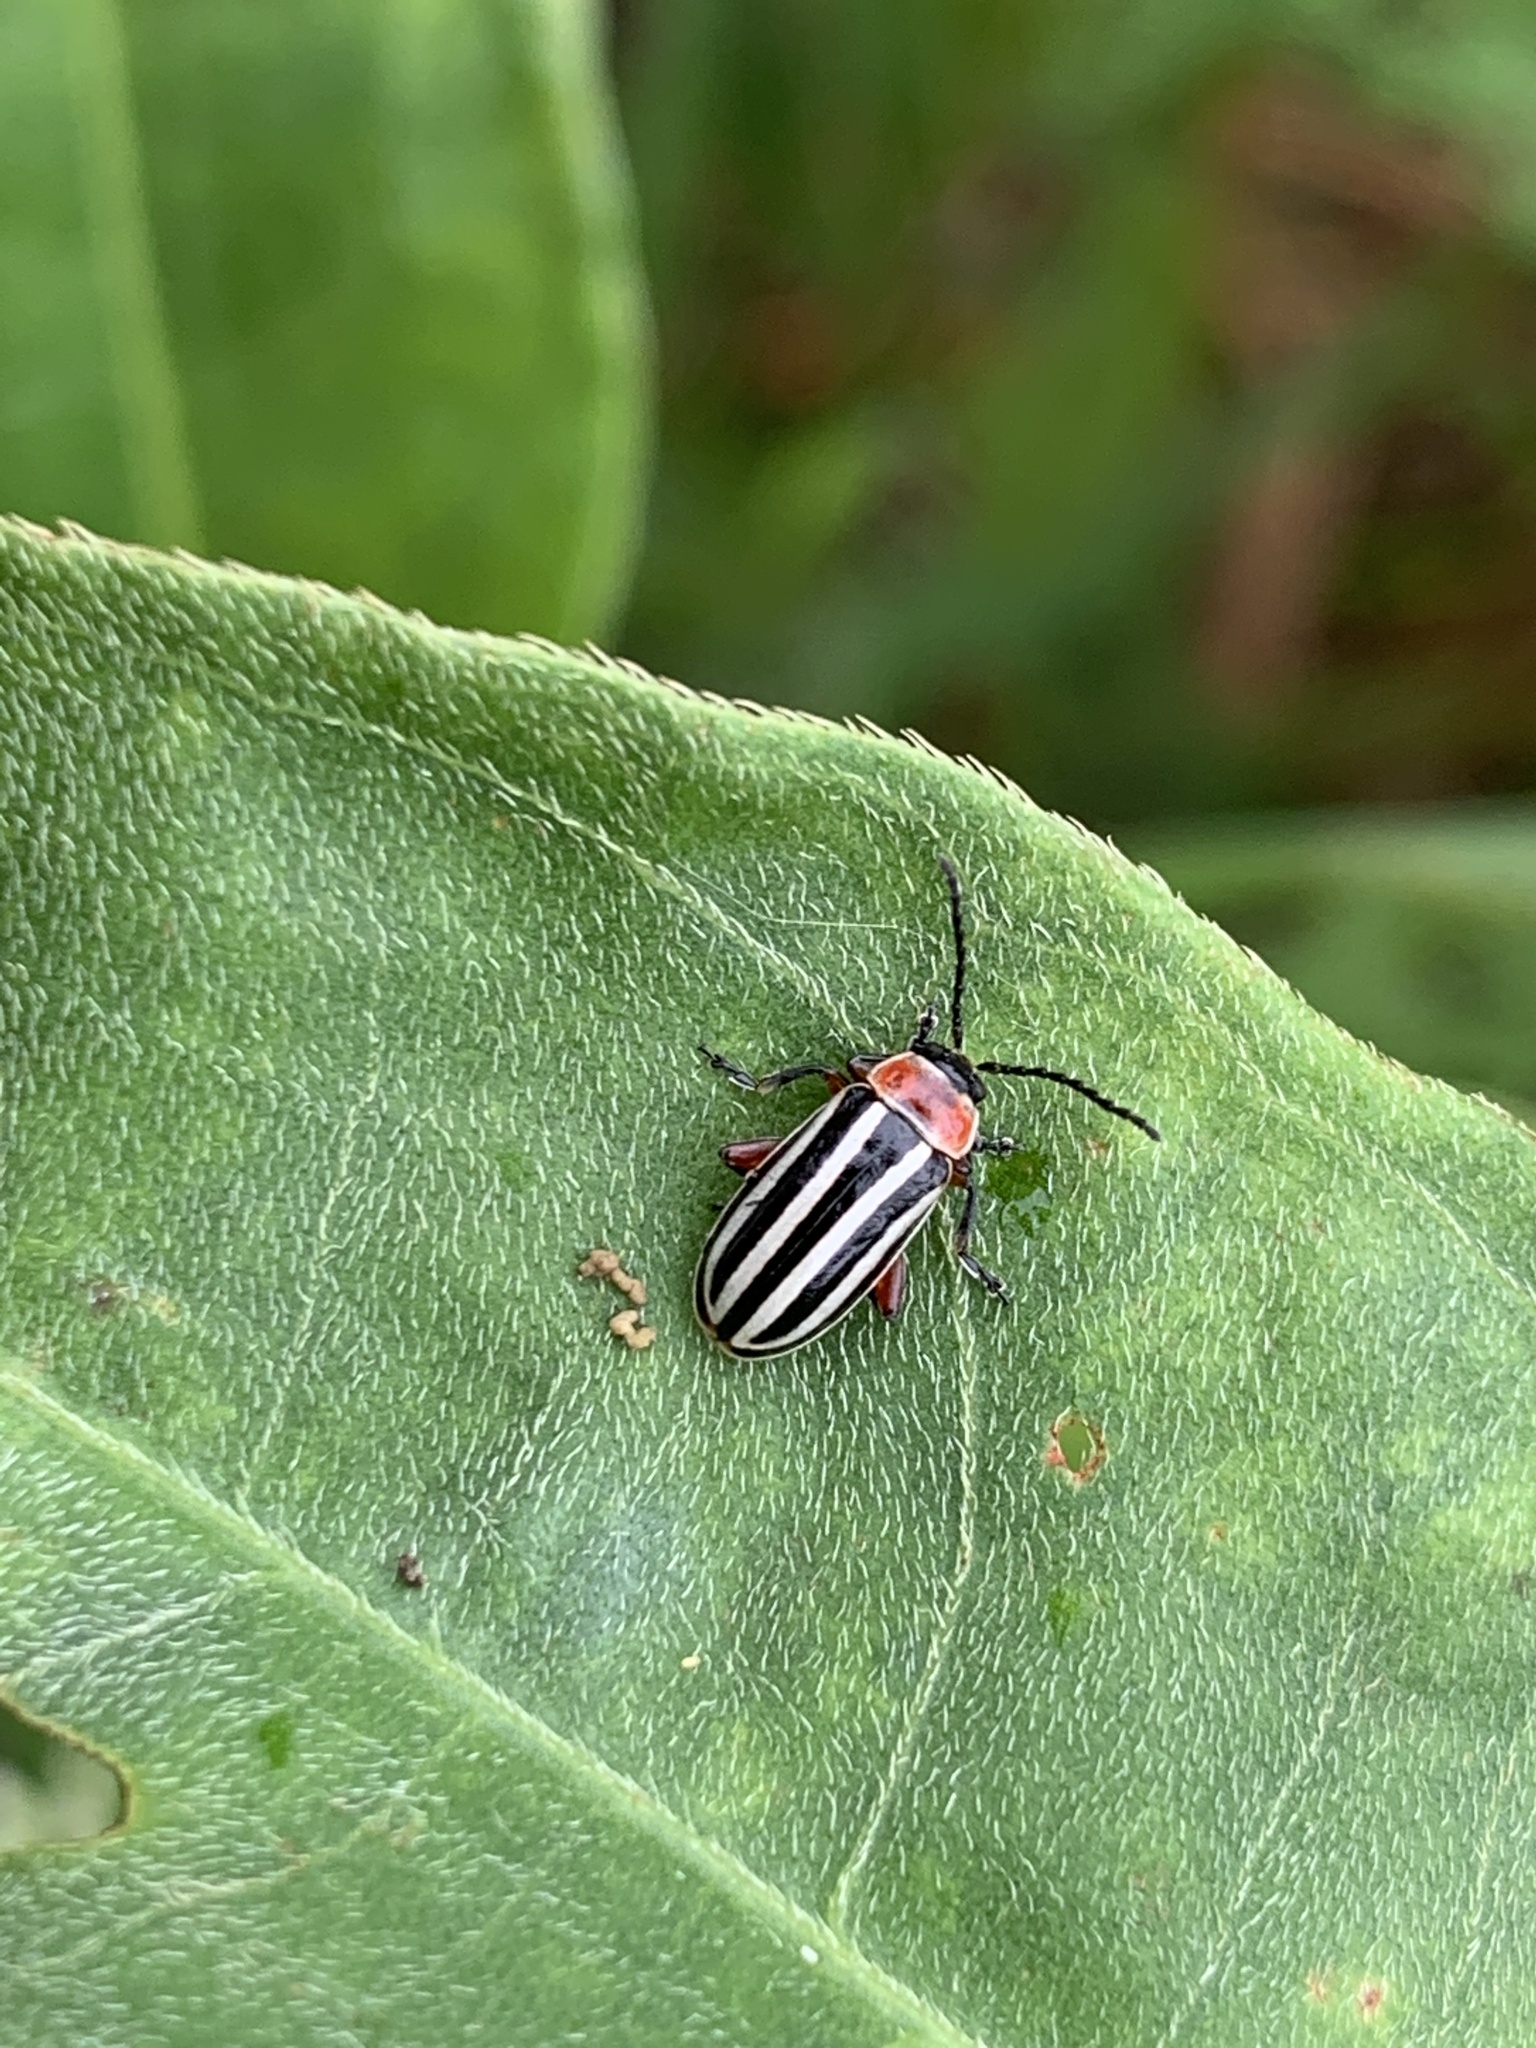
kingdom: Animalia
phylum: Arthropoda
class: Insecta
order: Coleoptera
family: Chrysomelidae
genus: Disonycha
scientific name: Disonycha pensylvanica
